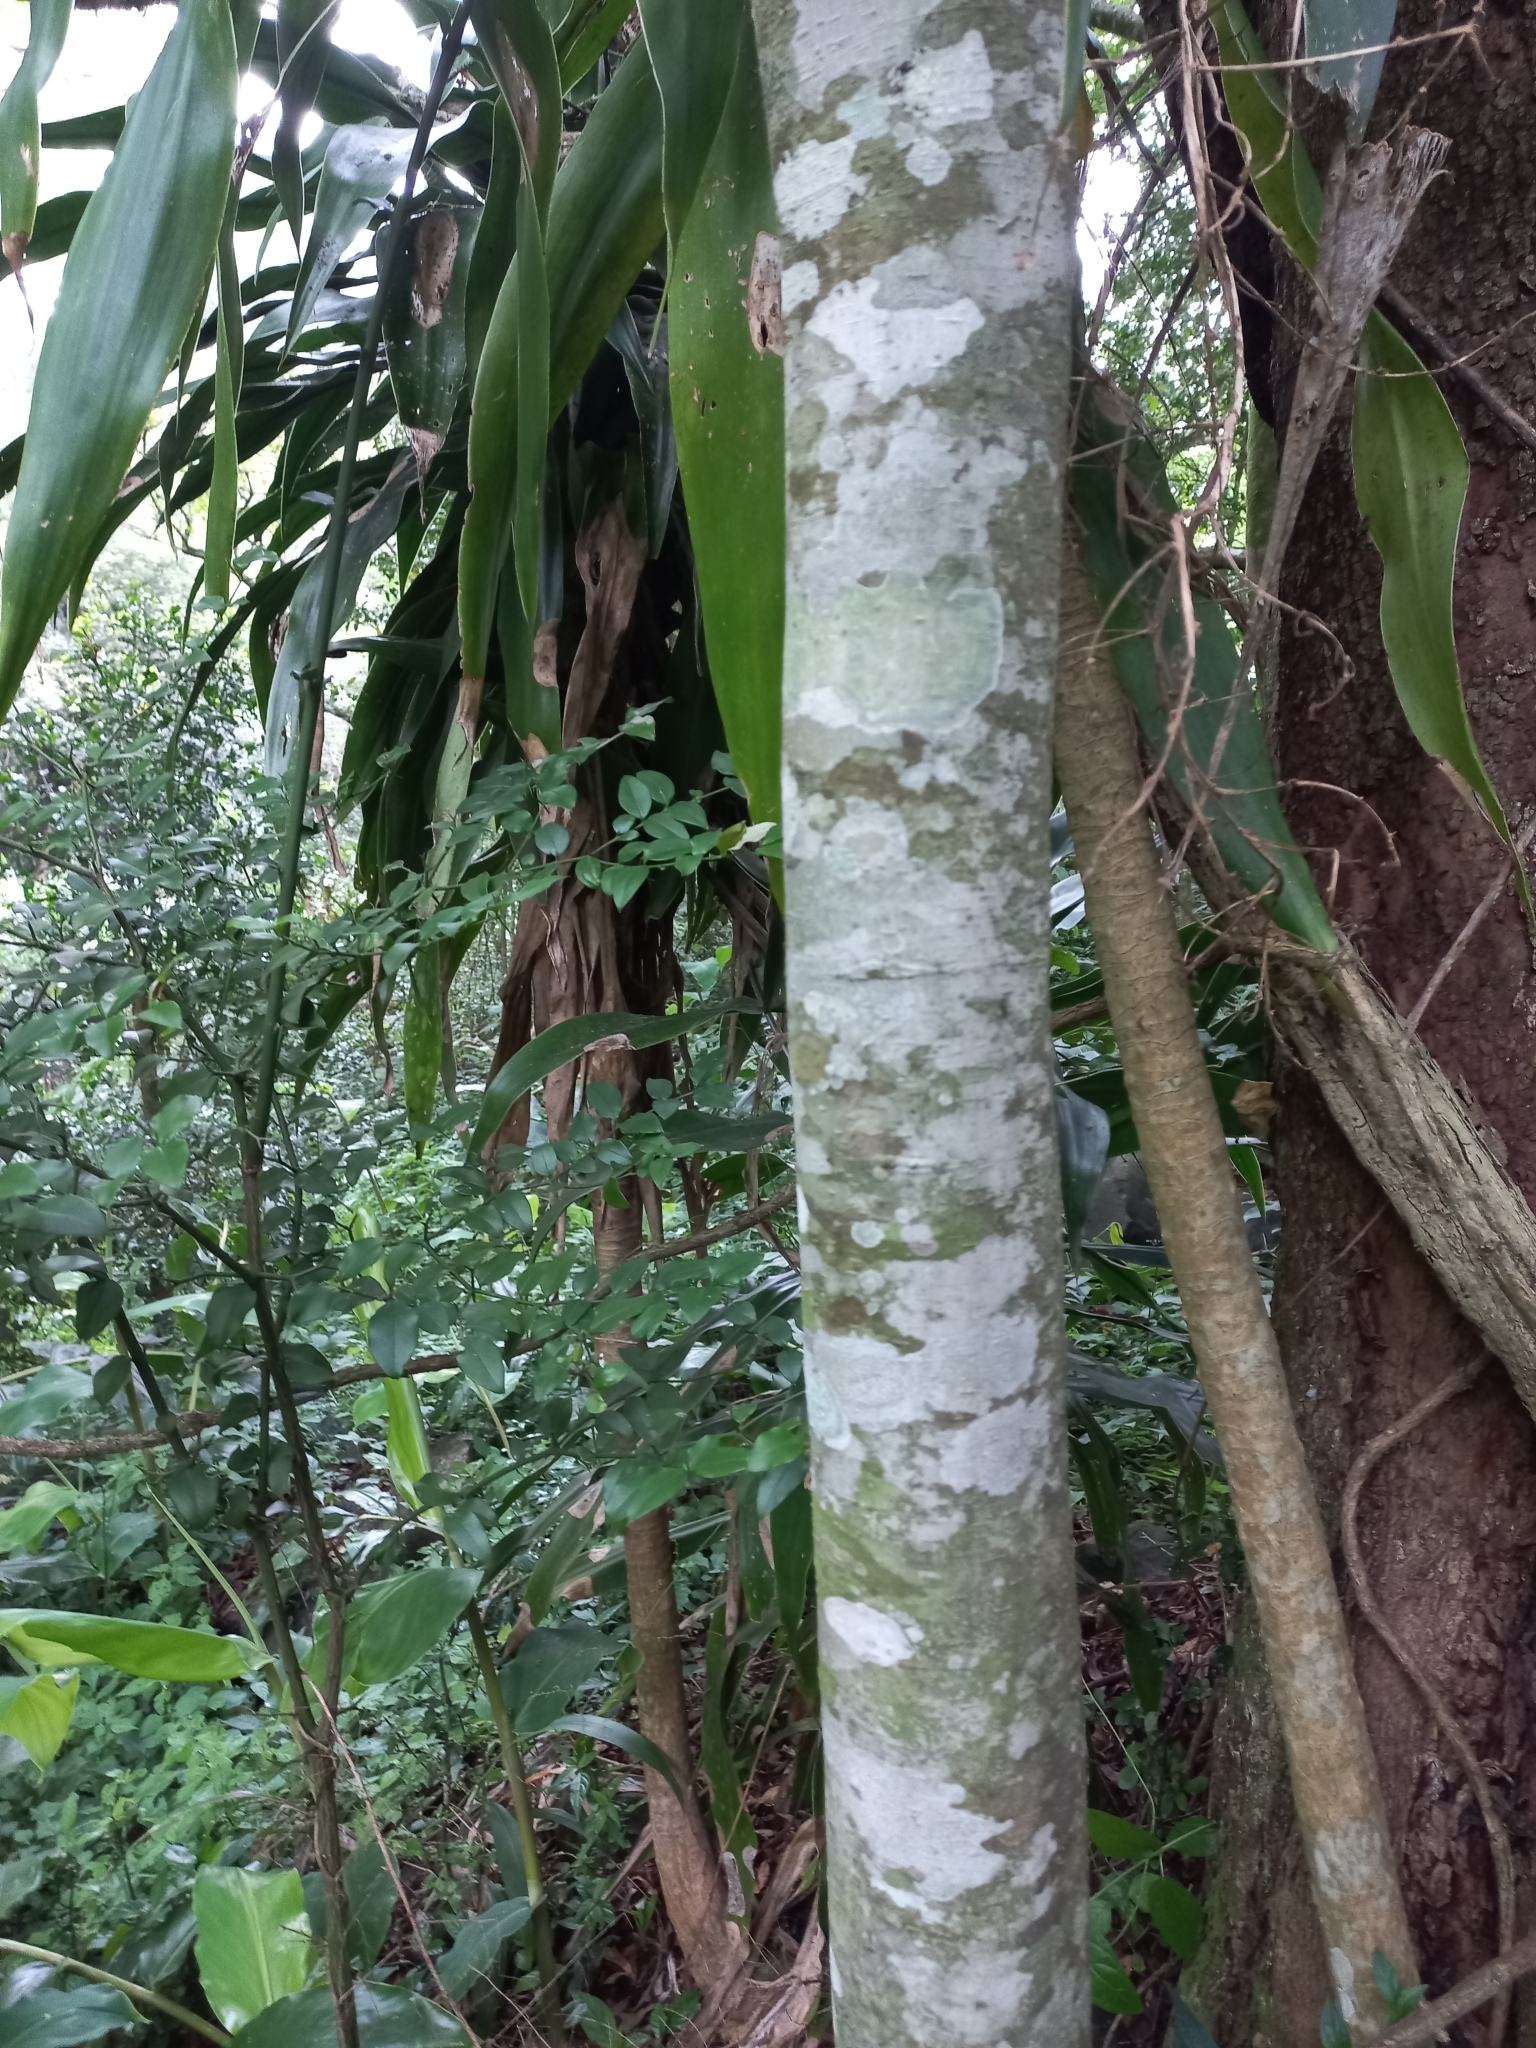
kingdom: Plantae
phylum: Tracheophyta
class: Magnoliopsida
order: Rosales
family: Cannabaceae
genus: Celtis
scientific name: Celtis africana
